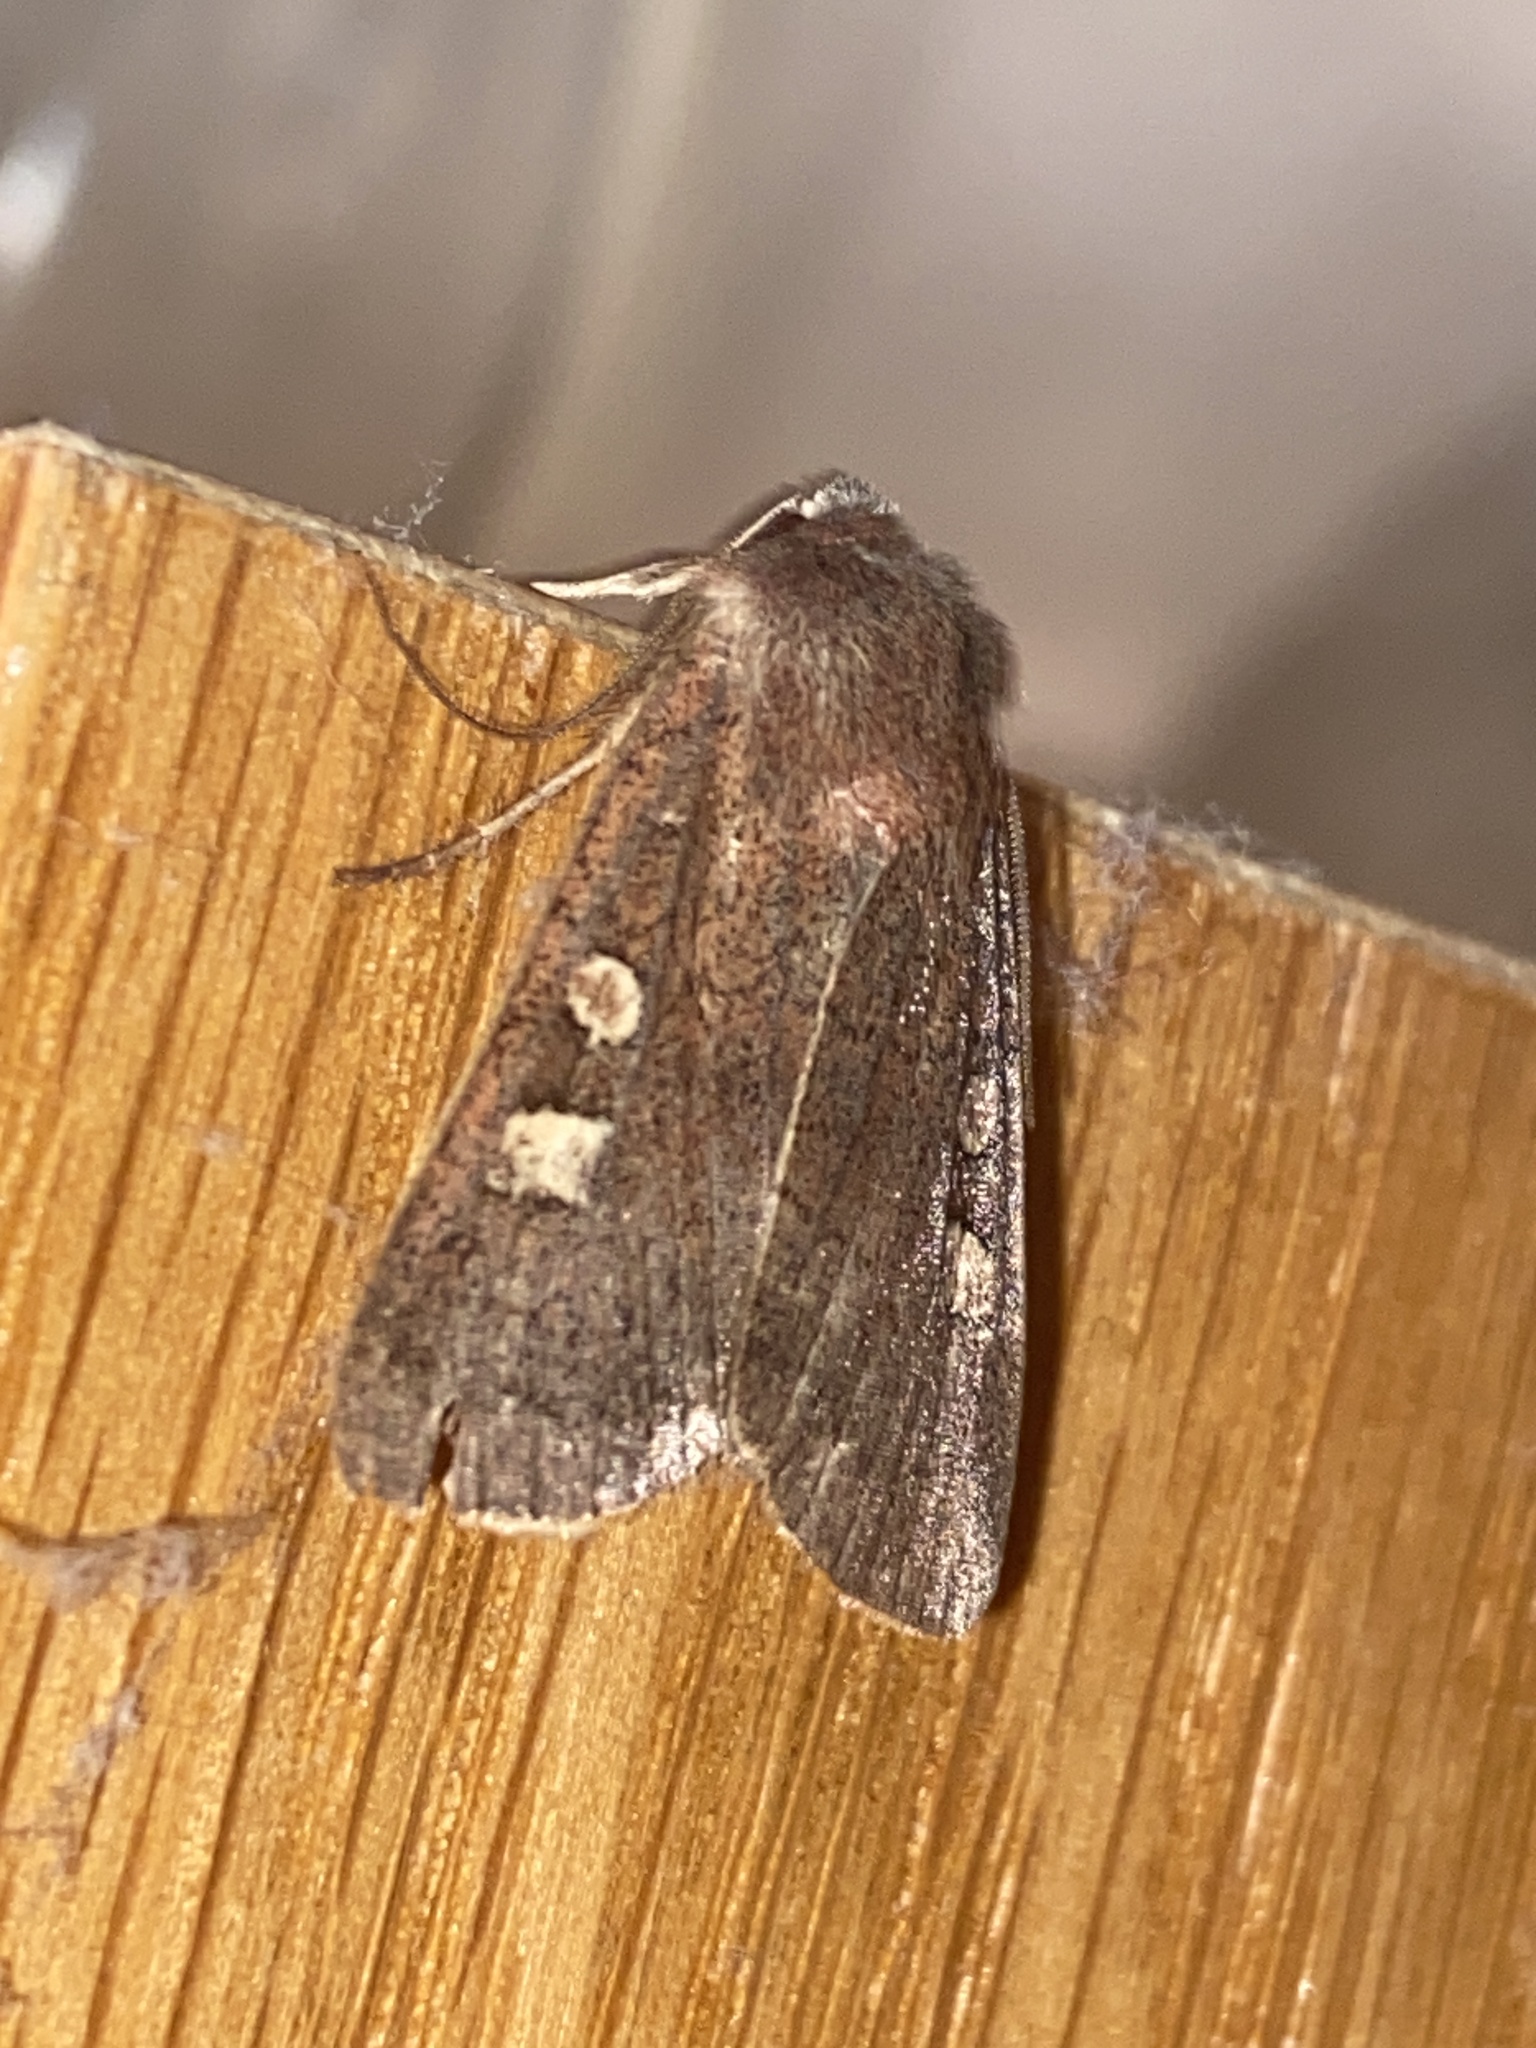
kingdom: Animalia
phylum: Arthropoda
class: Insecta
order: Lepidoptera
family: Noctuidae
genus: Xestia
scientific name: Xestia xanthographa
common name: Square-spot rustic
